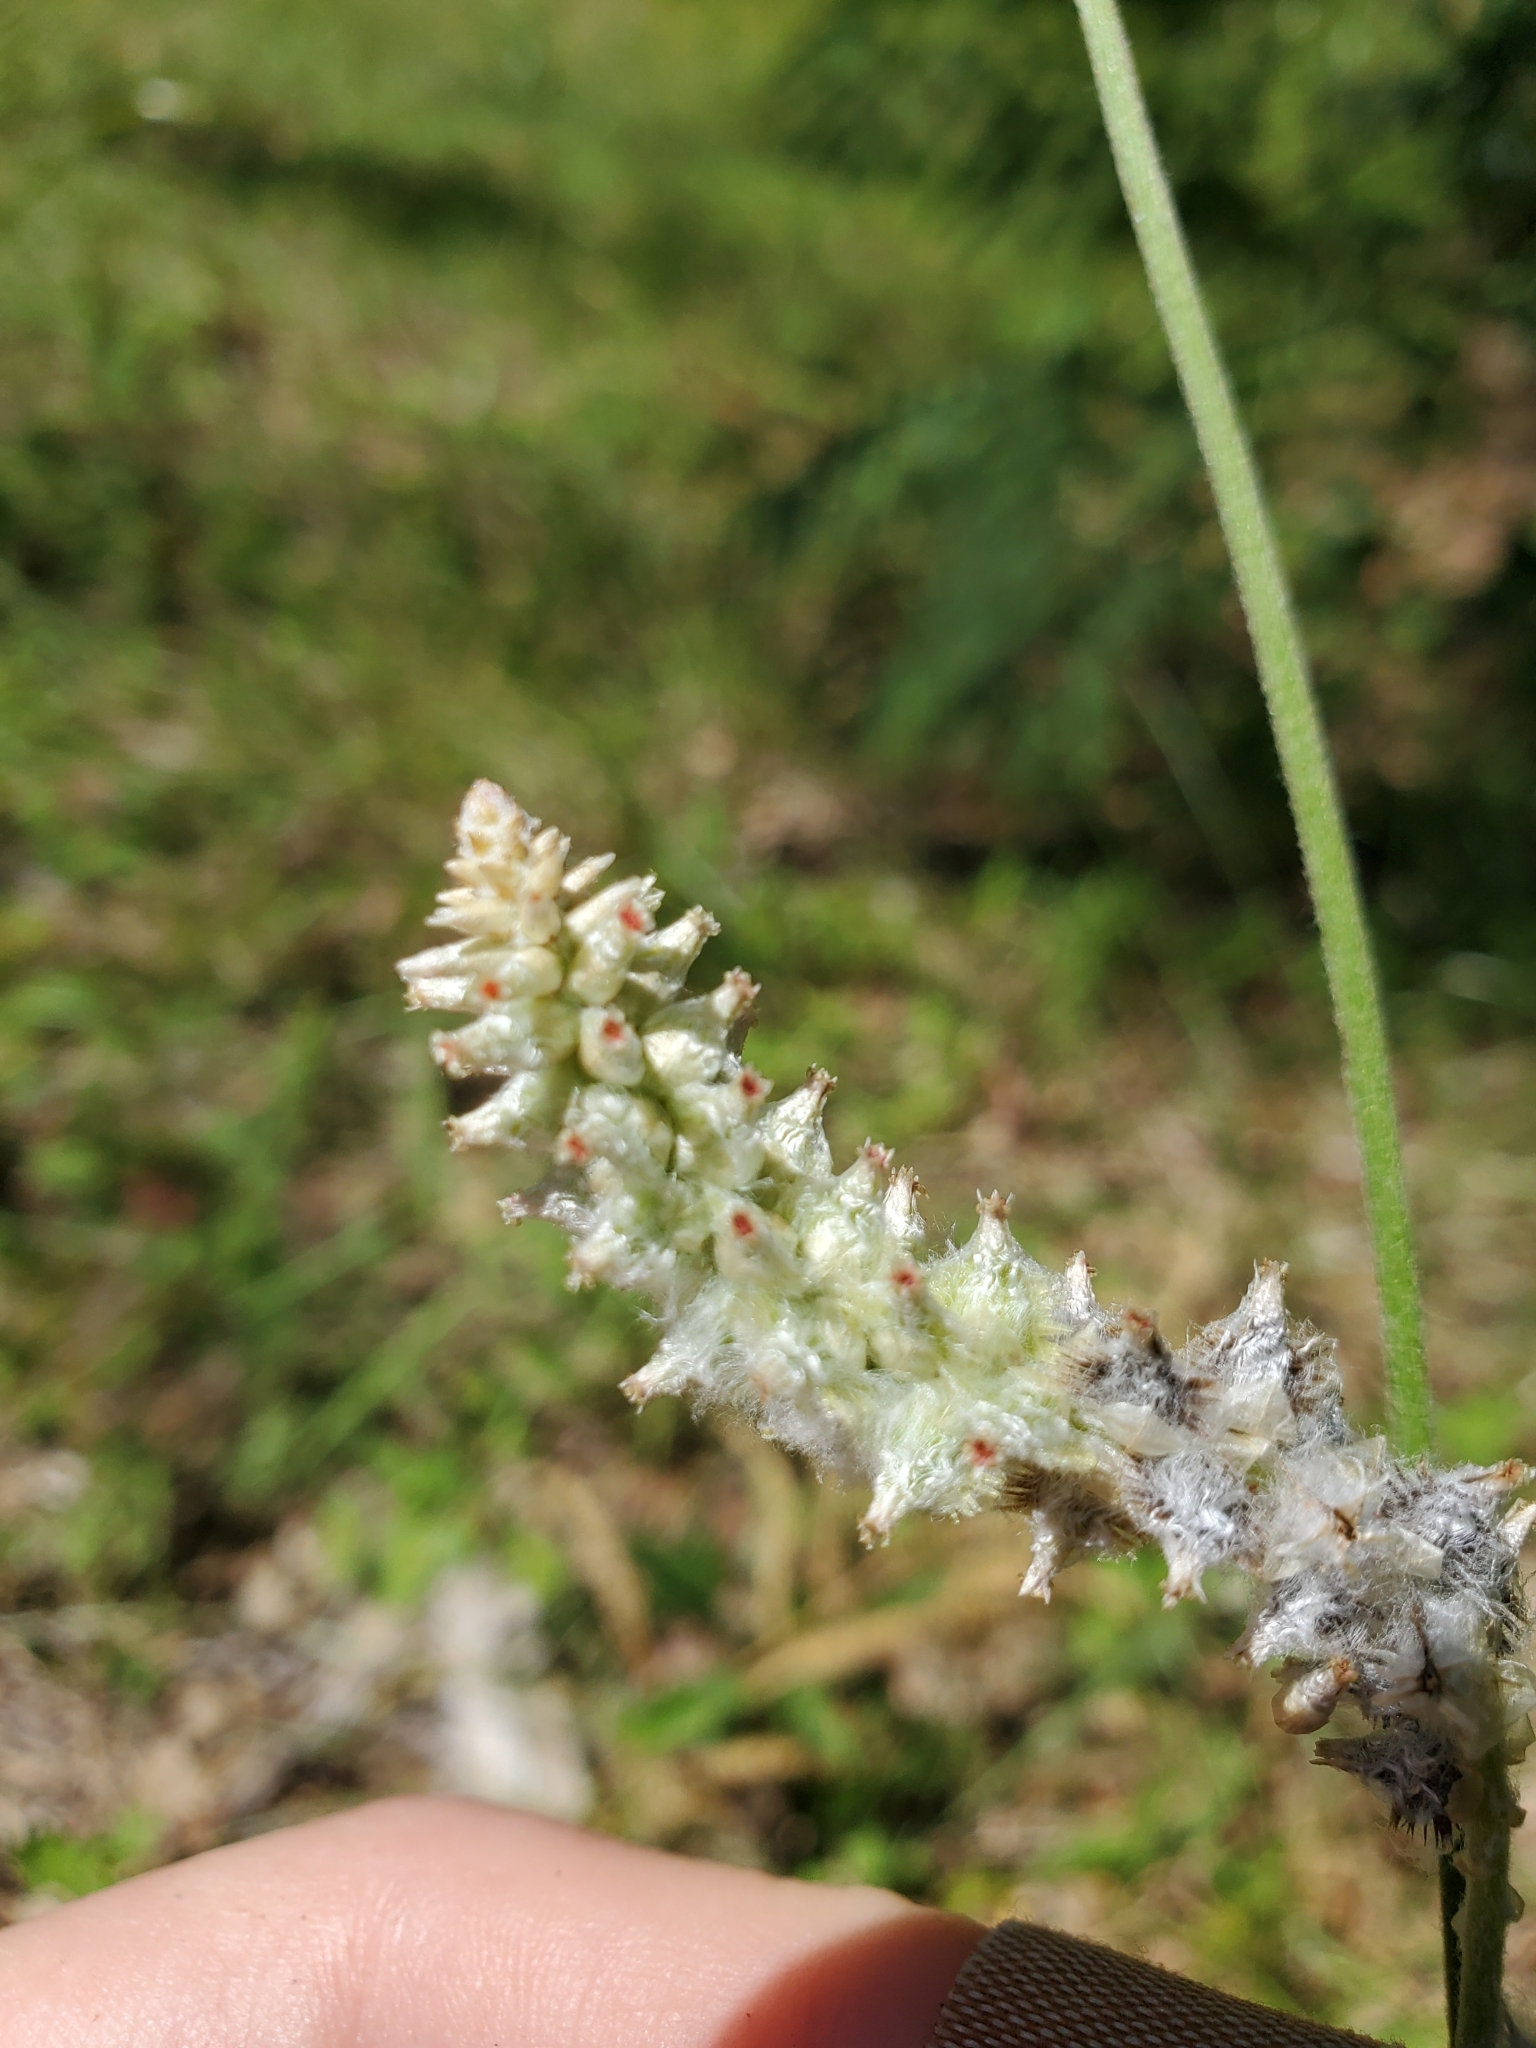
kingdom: Plantae
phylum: Tracheophyta
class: Magnoliopsida
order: Caryophyllales
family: Amaranthaceae
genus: Froelichia
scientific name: Froelichia floridana
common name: Florida snake-cotton
